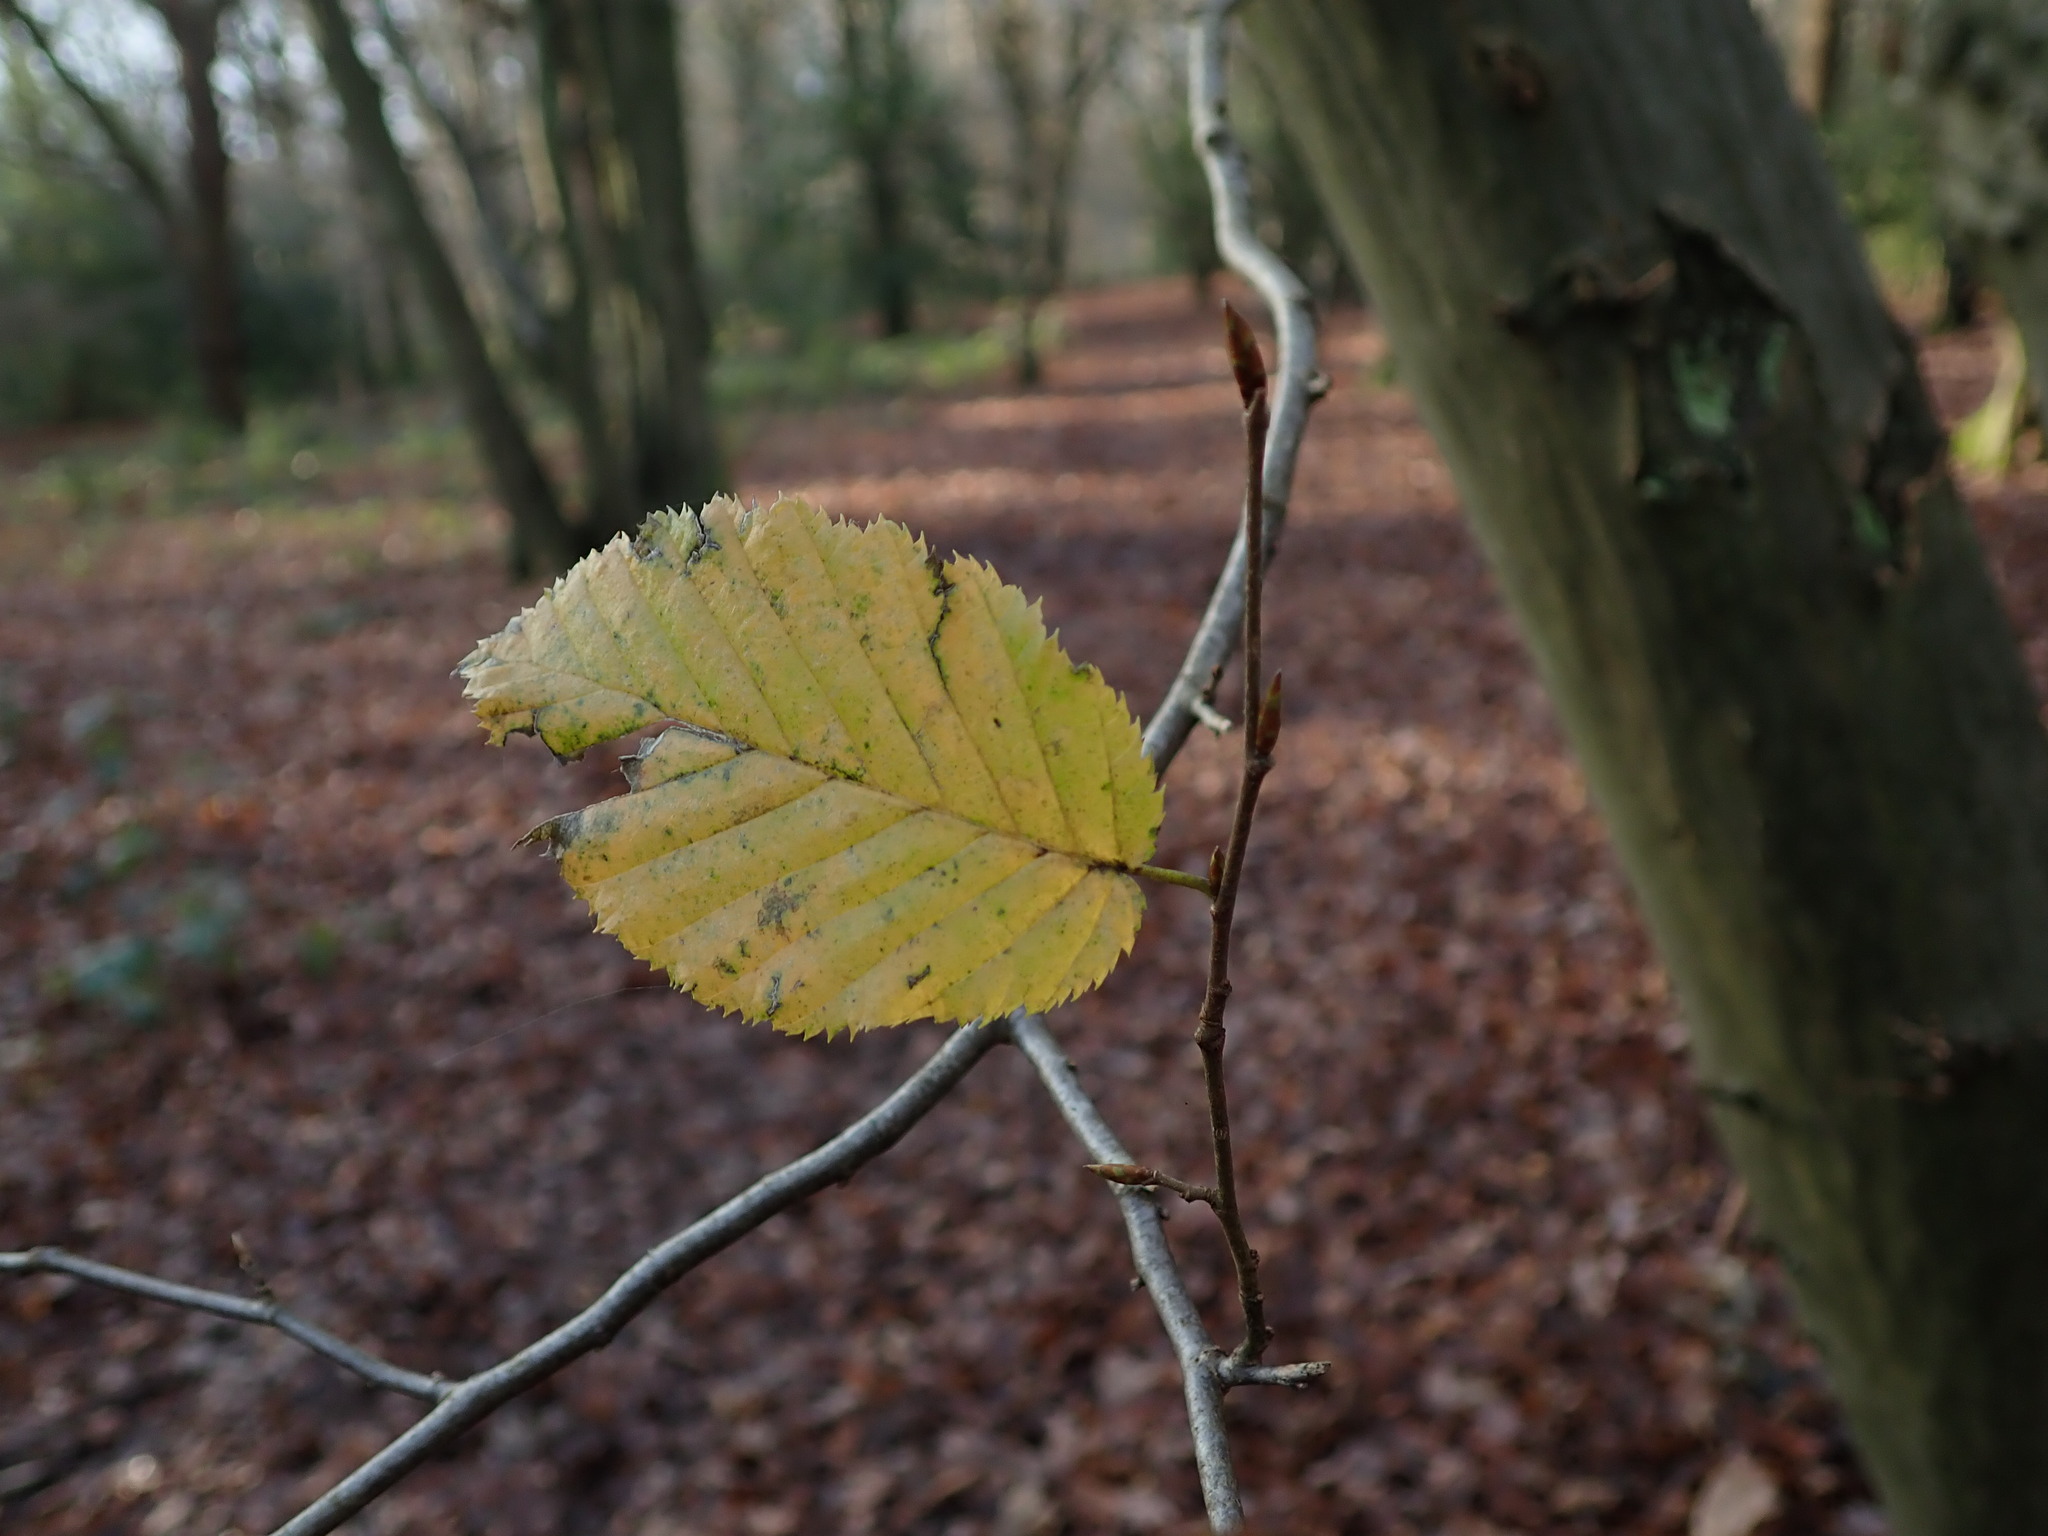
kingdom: Plantae
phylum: Tracheophyta
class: Magnoliopsida
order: Fagales
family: Betulaceae
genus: Carpinus
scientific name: Carpinus betulus
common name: Hornbeam
